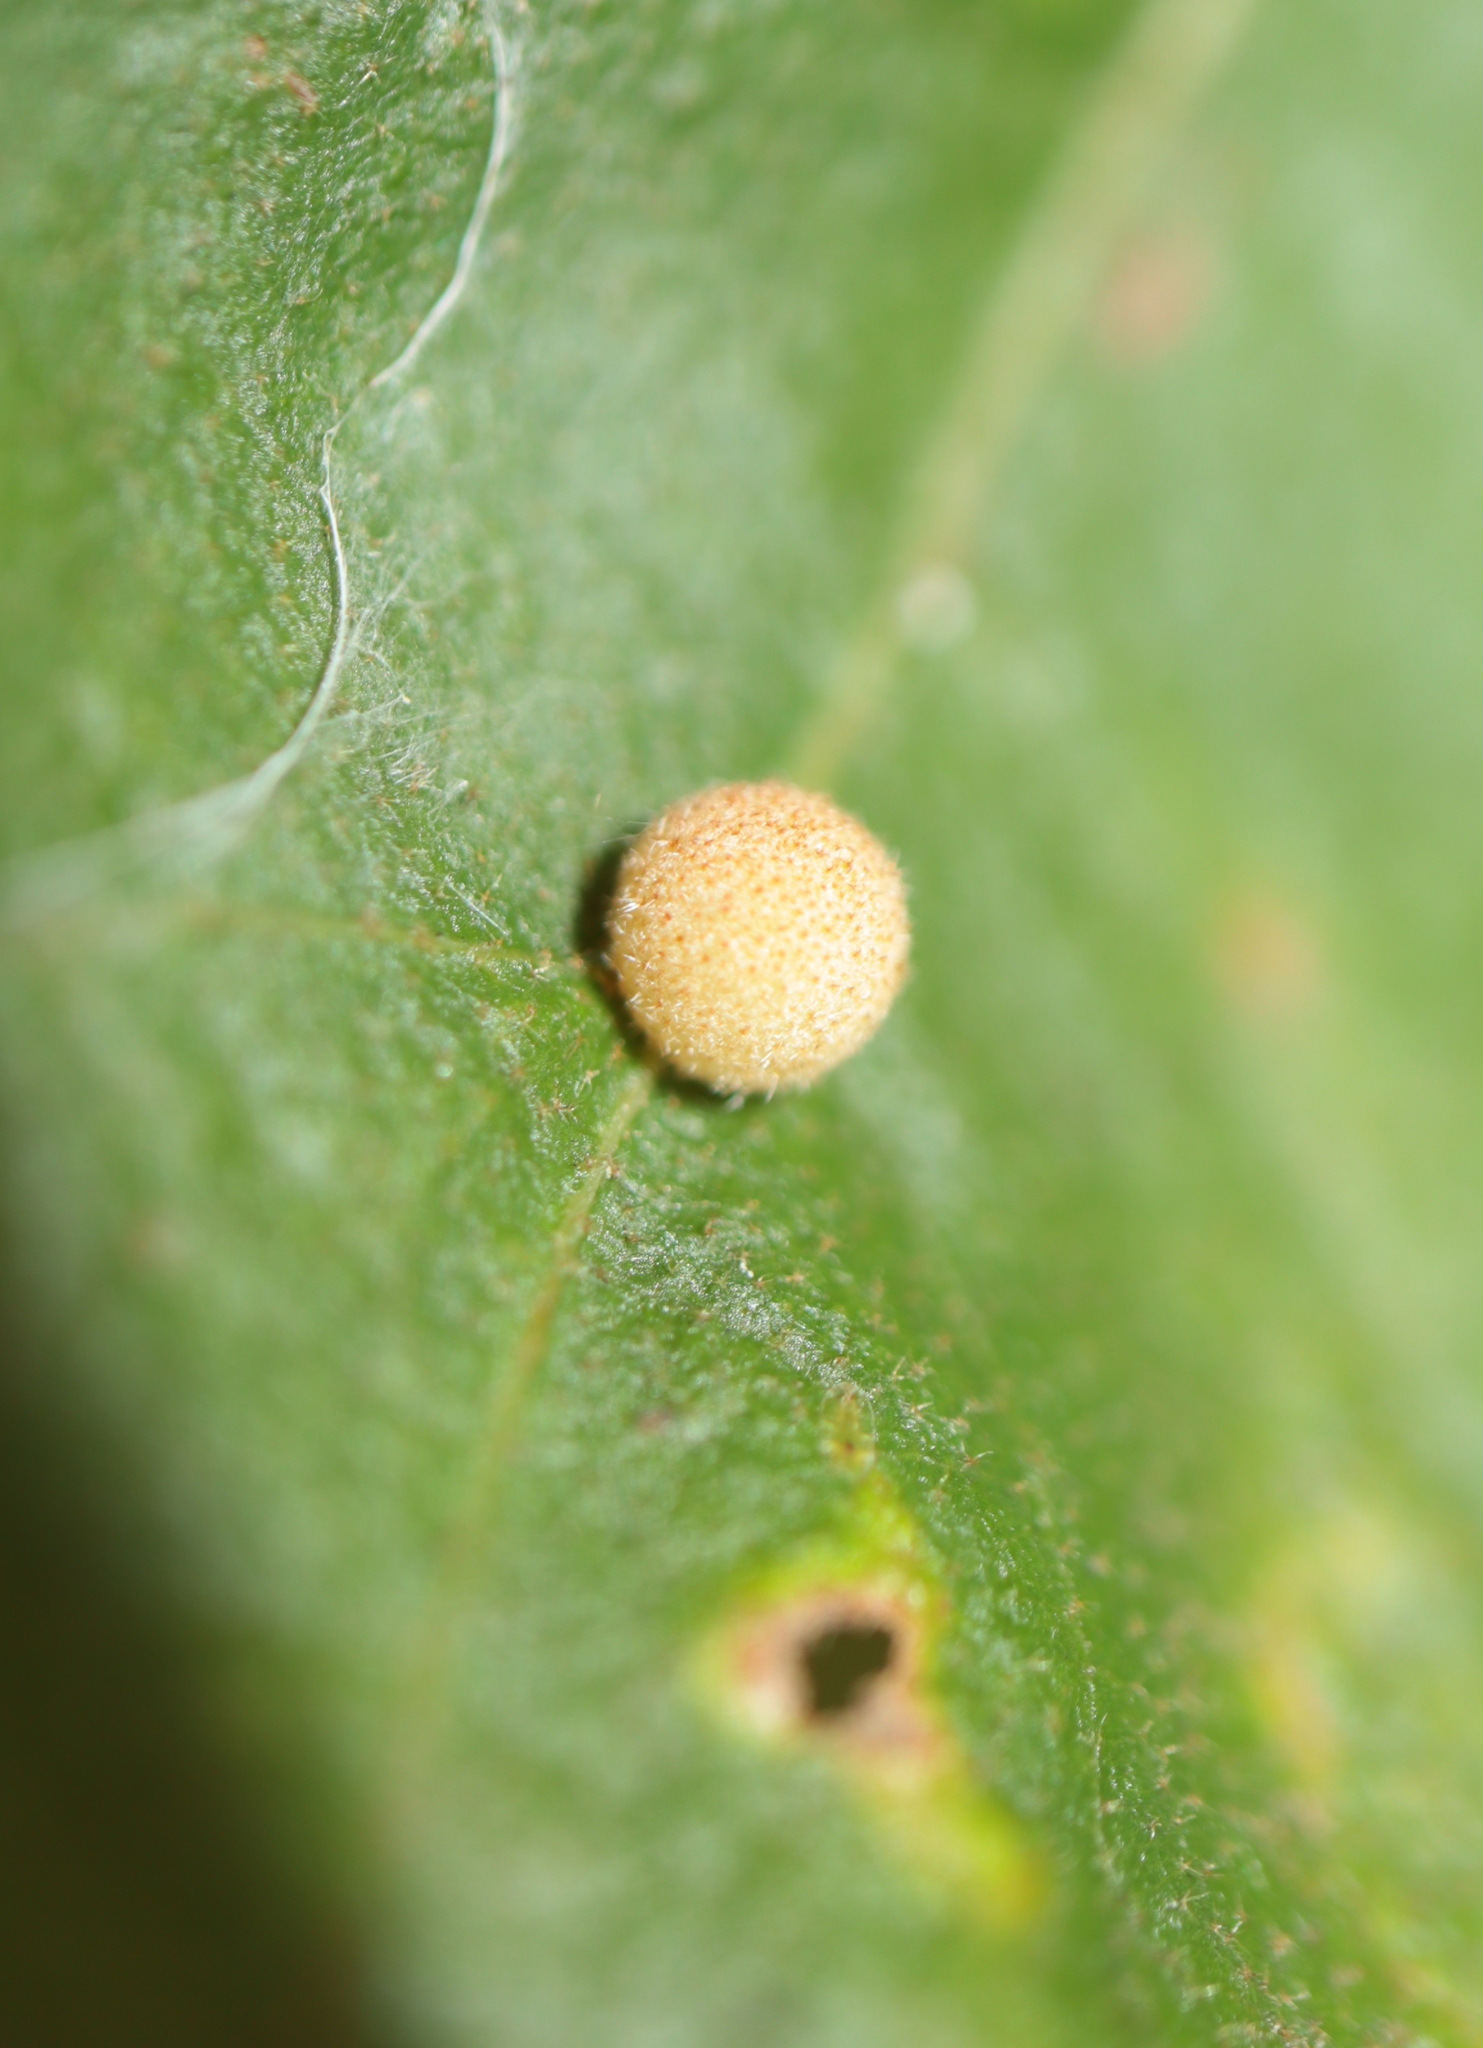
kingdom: Animalia
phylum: Arthropoda
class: Insecta
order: Hymenoptera
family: Cynipidae
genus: Biorhiza
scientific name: Biorhiza Sphaeroteras carolina
